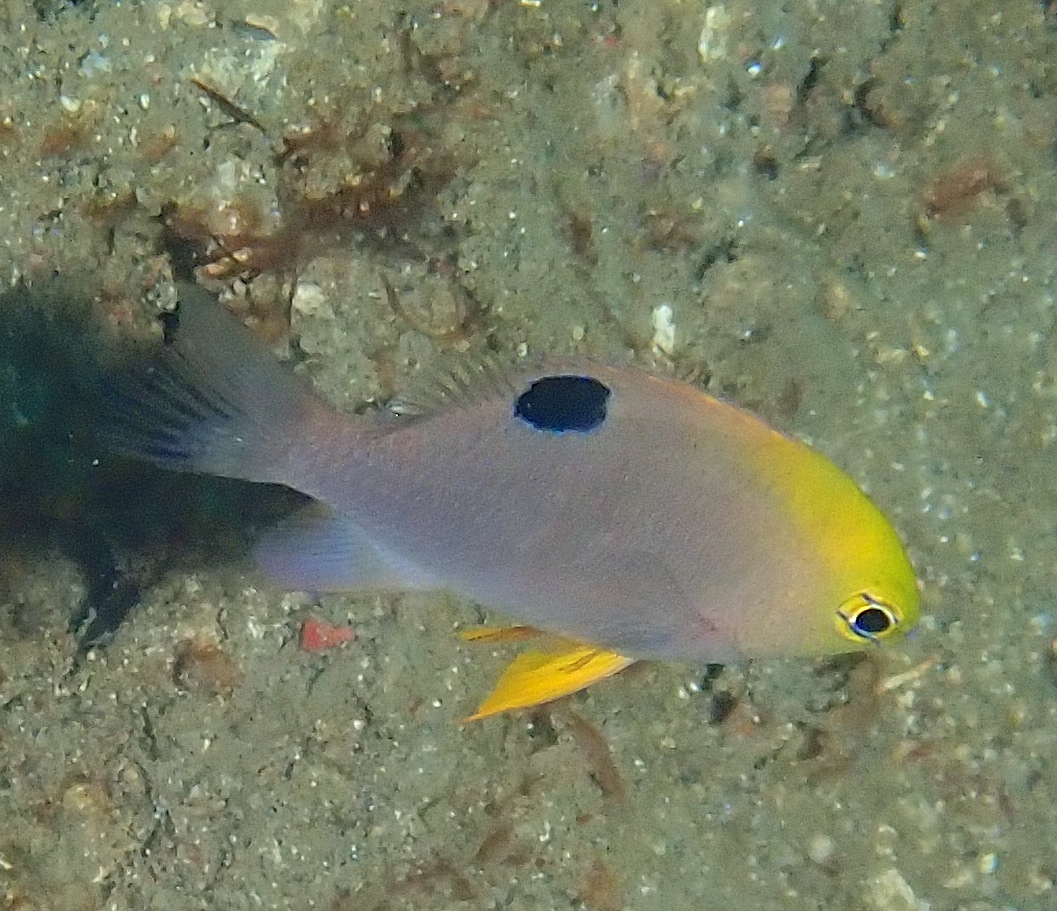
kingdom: Animalia
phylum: Chordata
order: Perciformes
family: Pomacentridae
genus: Chrysiptera
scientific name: Chrysiptera talboti
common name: Talbot's demoiselle
